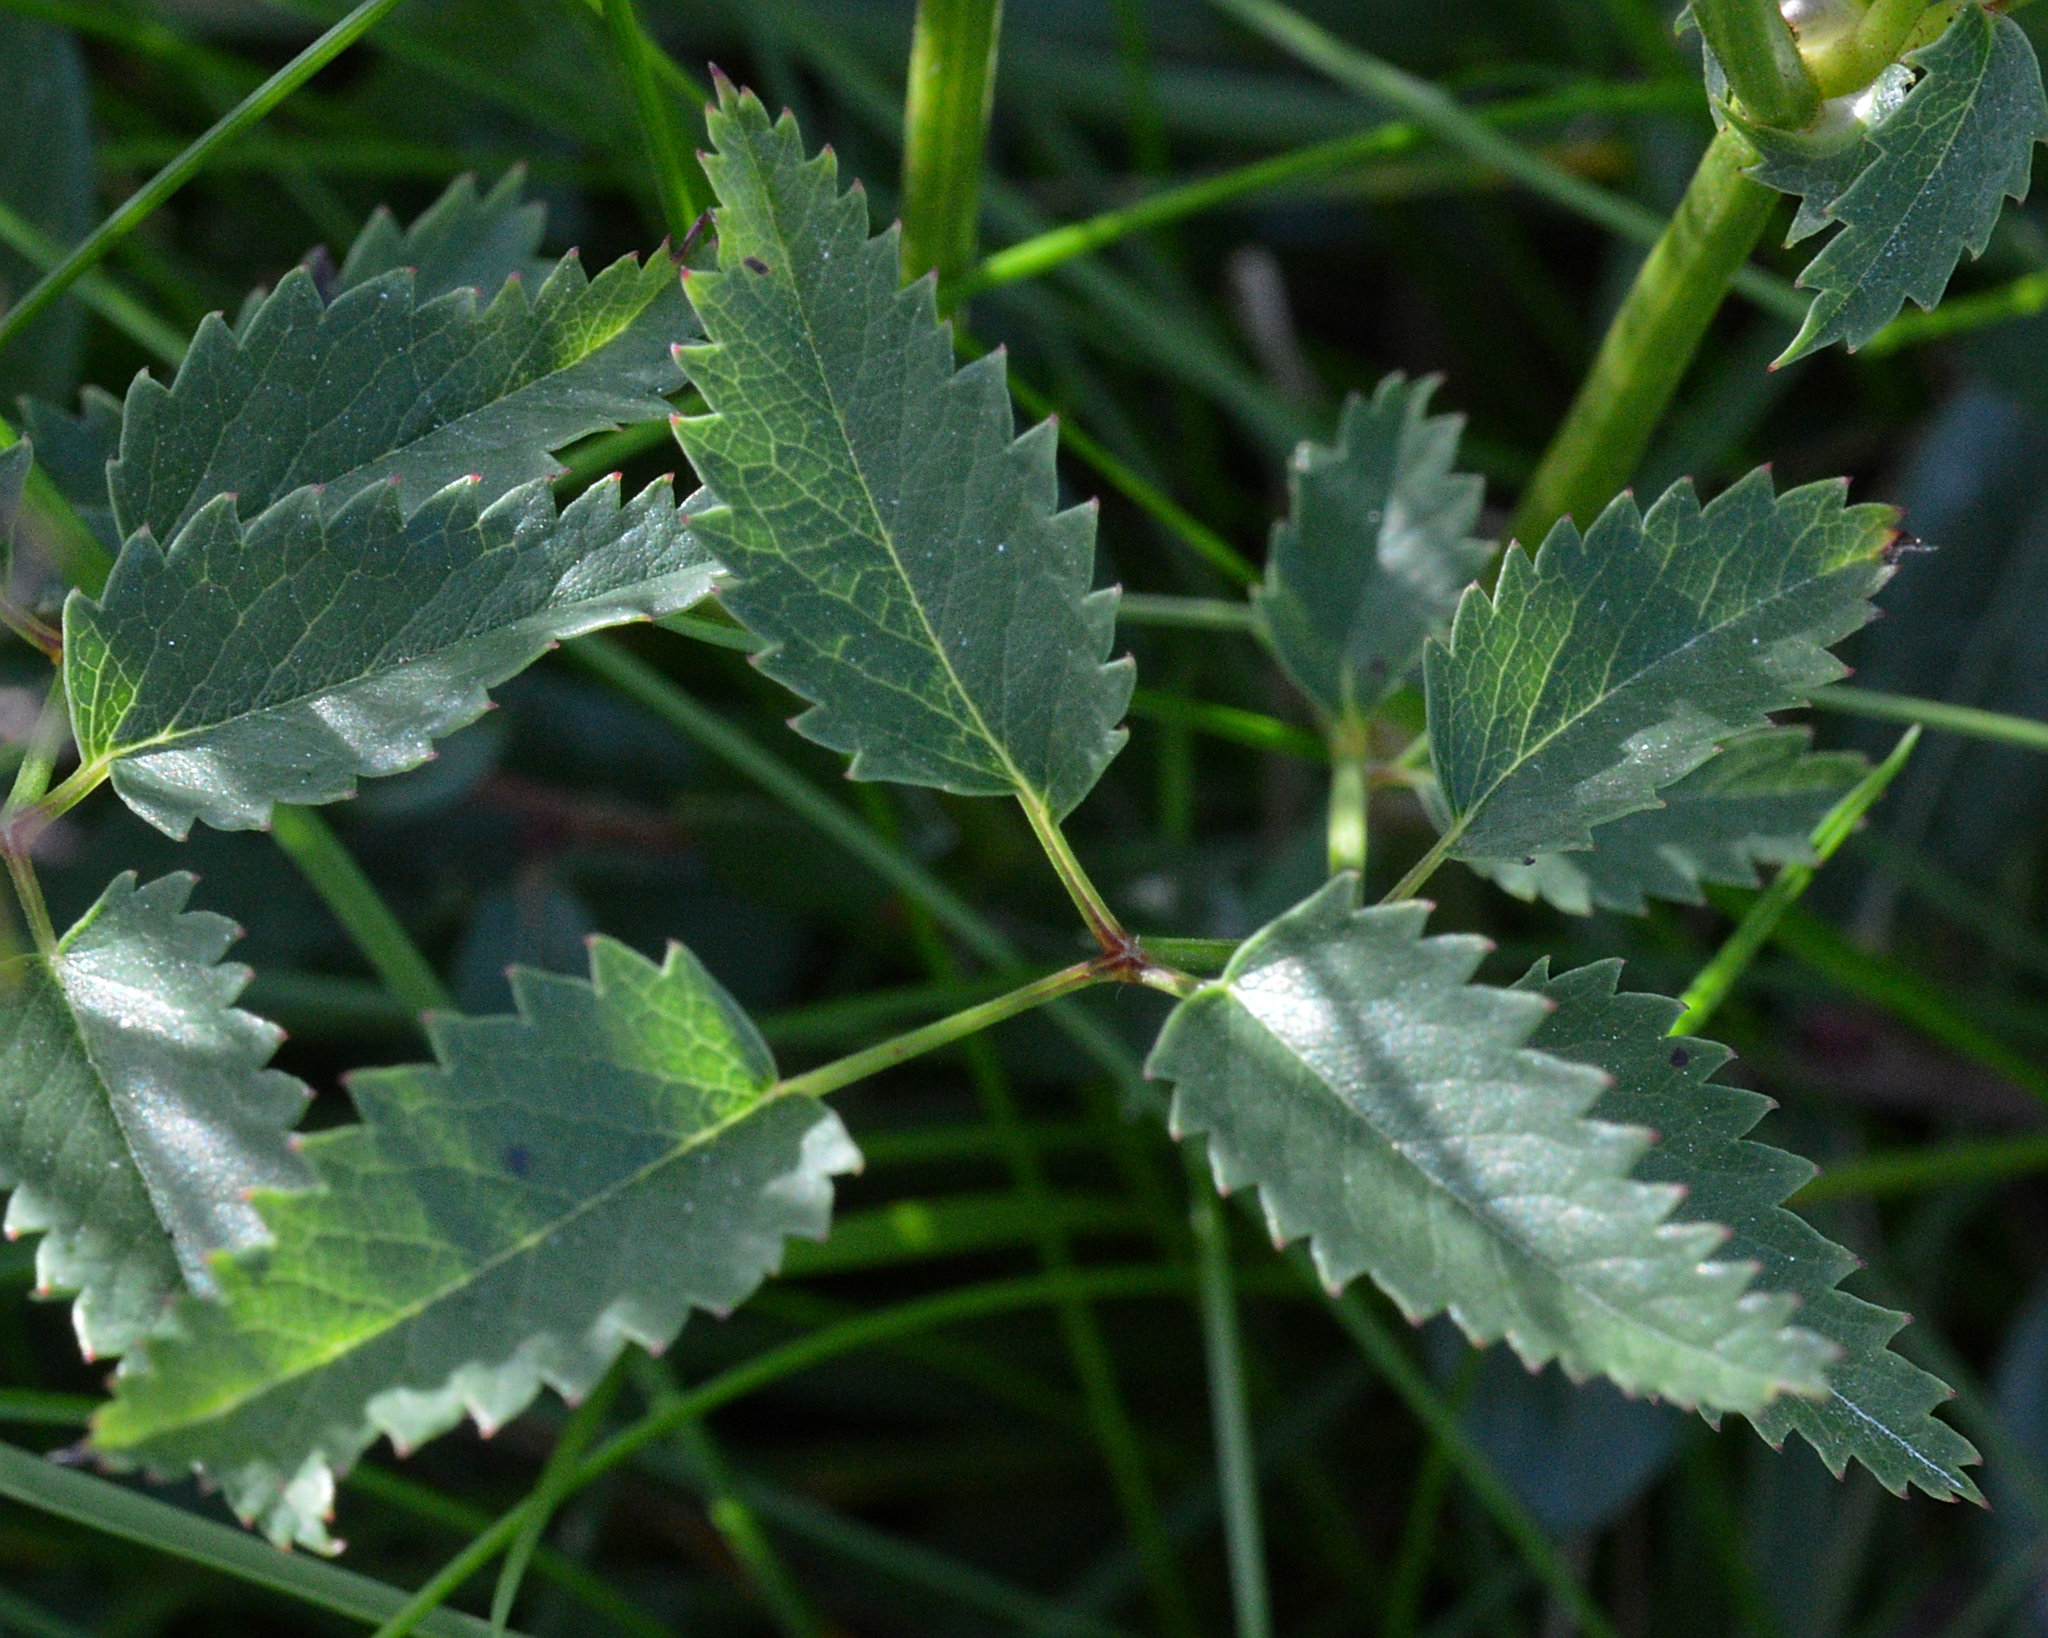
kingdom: Plantae
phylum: Tracheophyta
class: Magnoliopsida
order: Rosales
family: Rosaceae
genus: Sanguisorba
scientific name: Sanguisorba officinalis
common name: Great burnet
